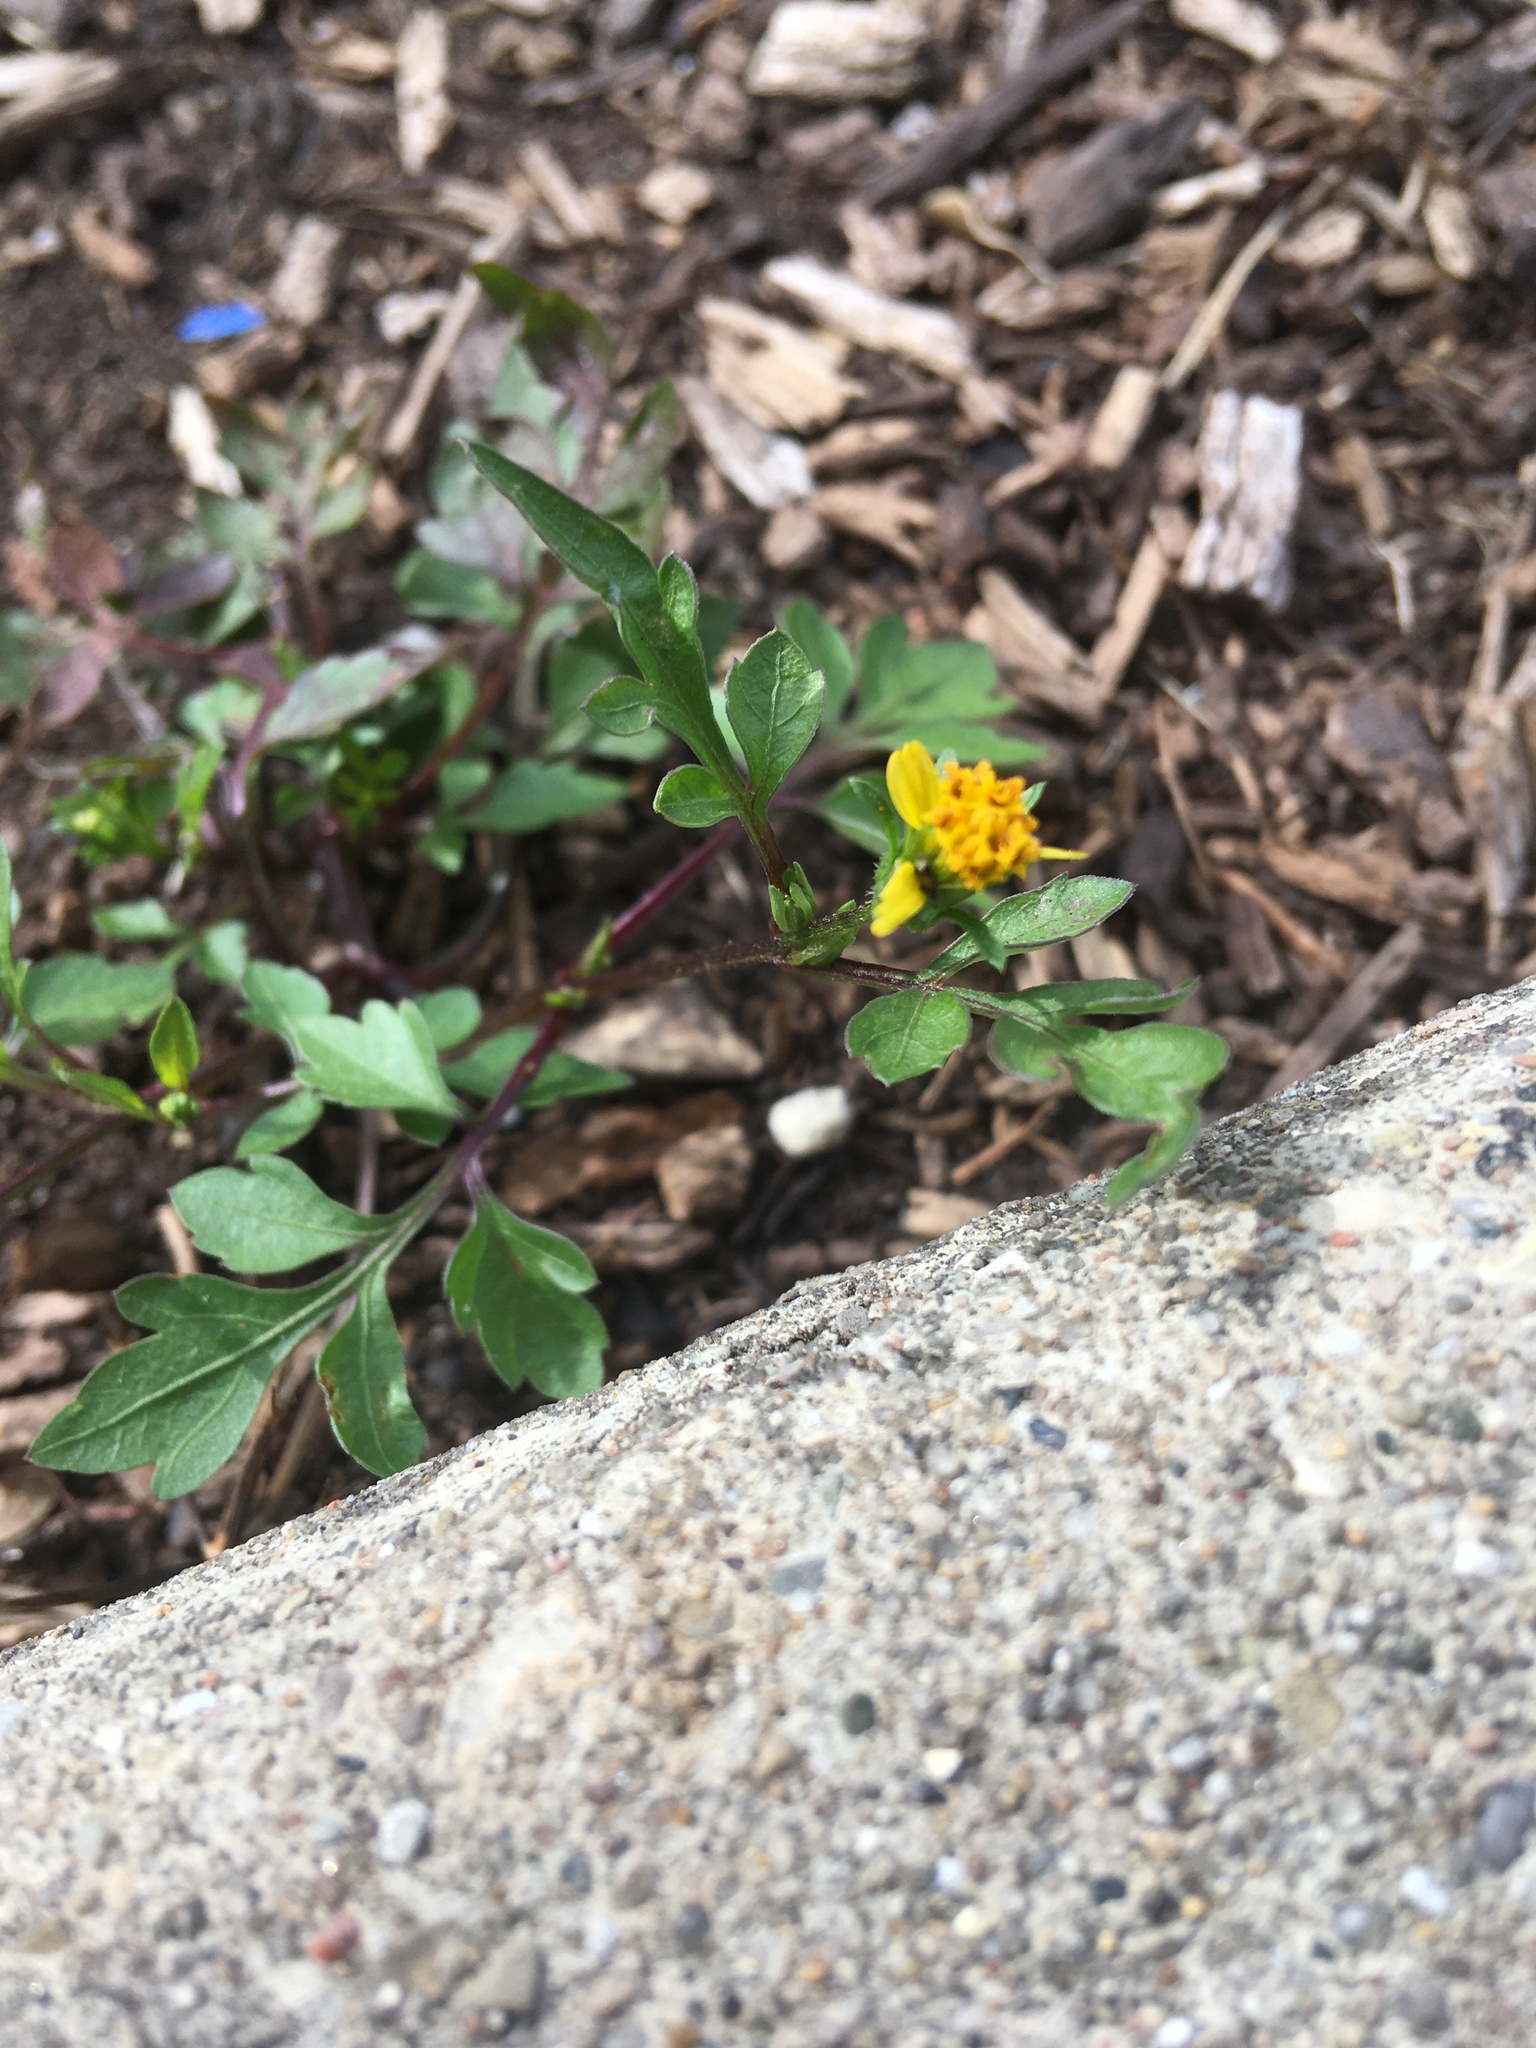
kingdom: Plantae
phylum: Tracheophyta
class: Magnoliopsida
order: Asterales
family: Asteraceae
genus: Bidens
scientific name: Bidens bipinnata
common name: Spanish-needles
